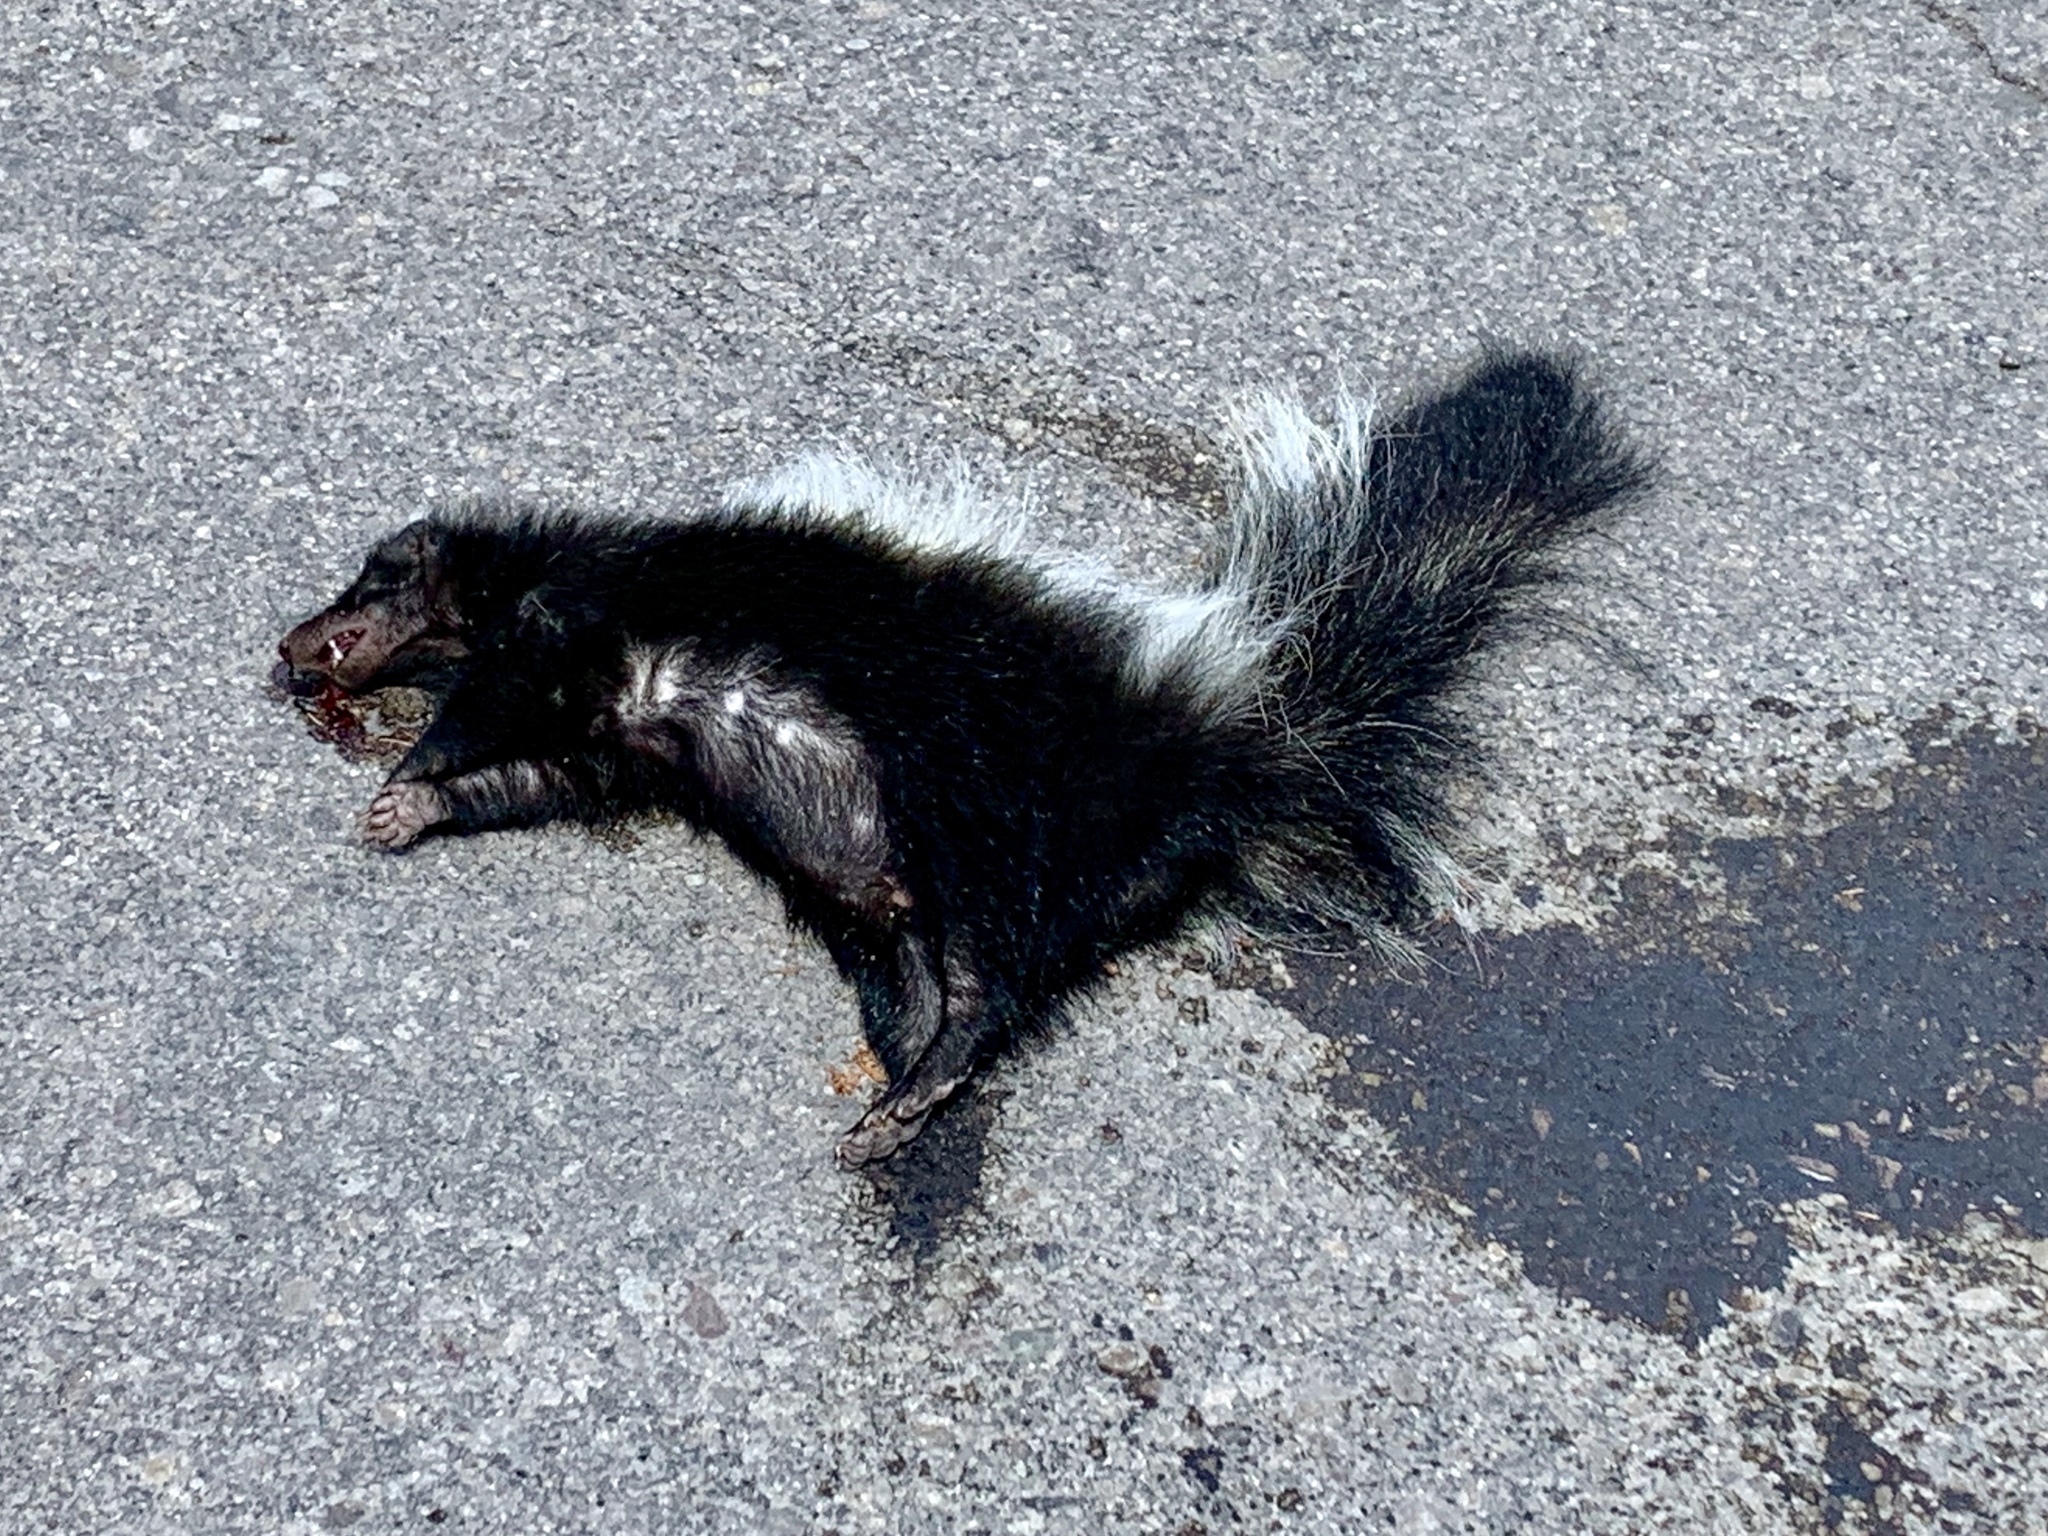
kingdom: Animalia
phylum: Chordata
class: Mammalia
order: Carnivora
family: Mephitidae
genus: Mephitis
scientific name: Mephitis mephitis
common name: Striped skunk
